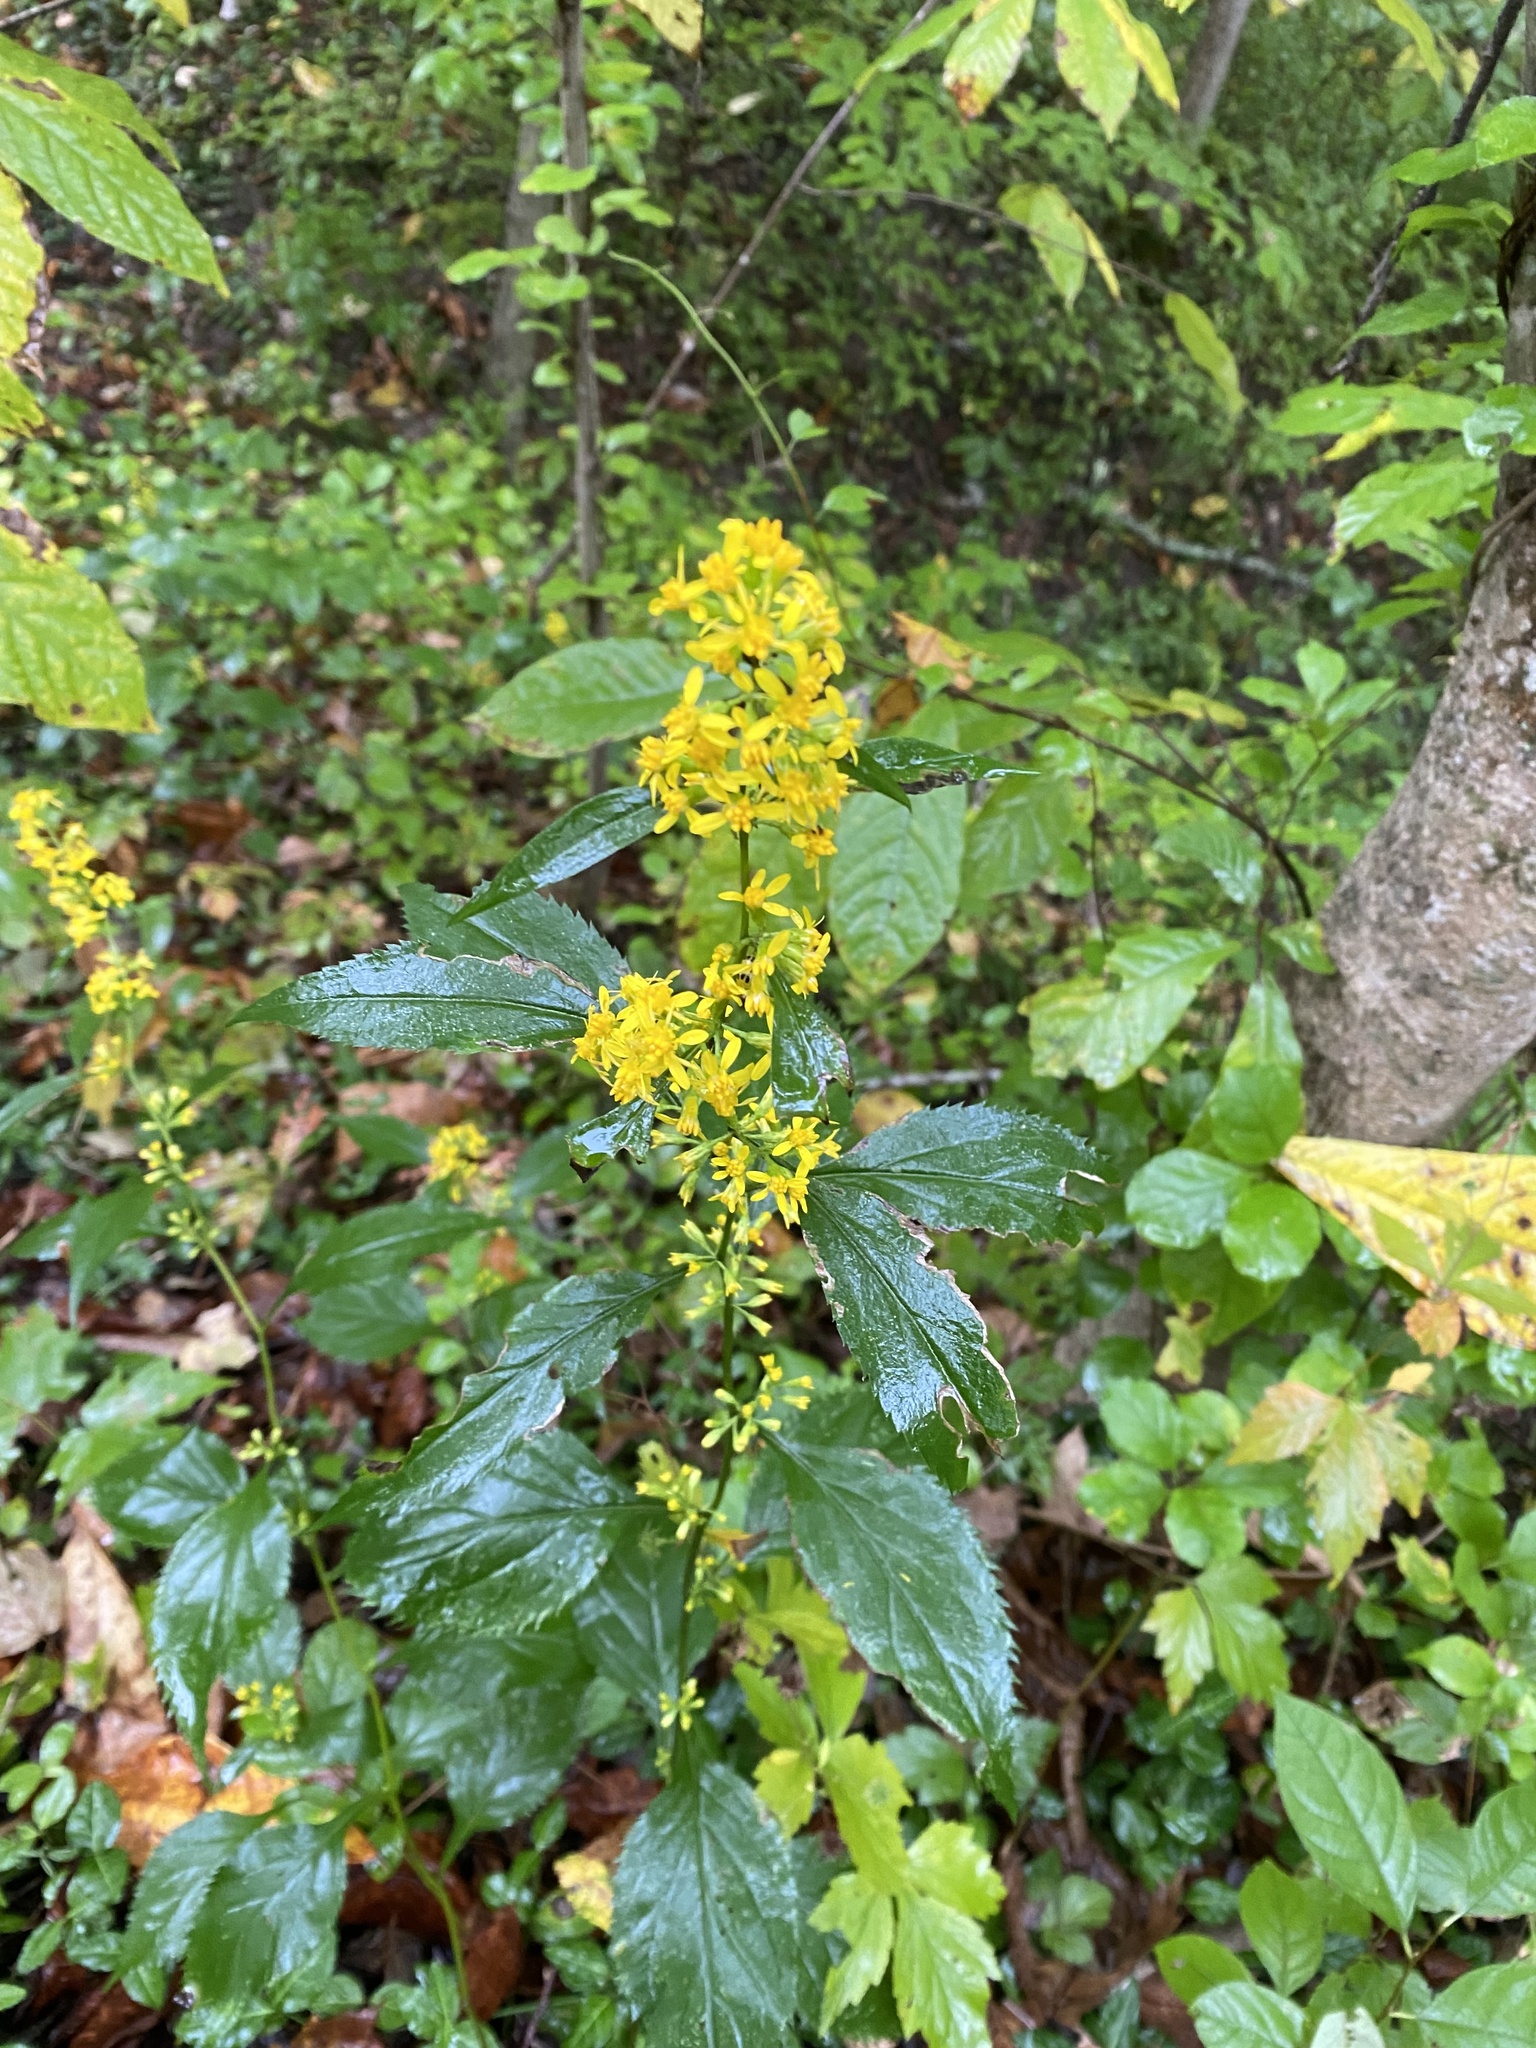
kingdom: Plantae
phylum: Tracheophyta
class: Magnoliopsida
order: Asterales
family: Asteraceae
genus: Solidago
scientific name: Solidago flexicaulis
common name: Zig-zag goldenrod
